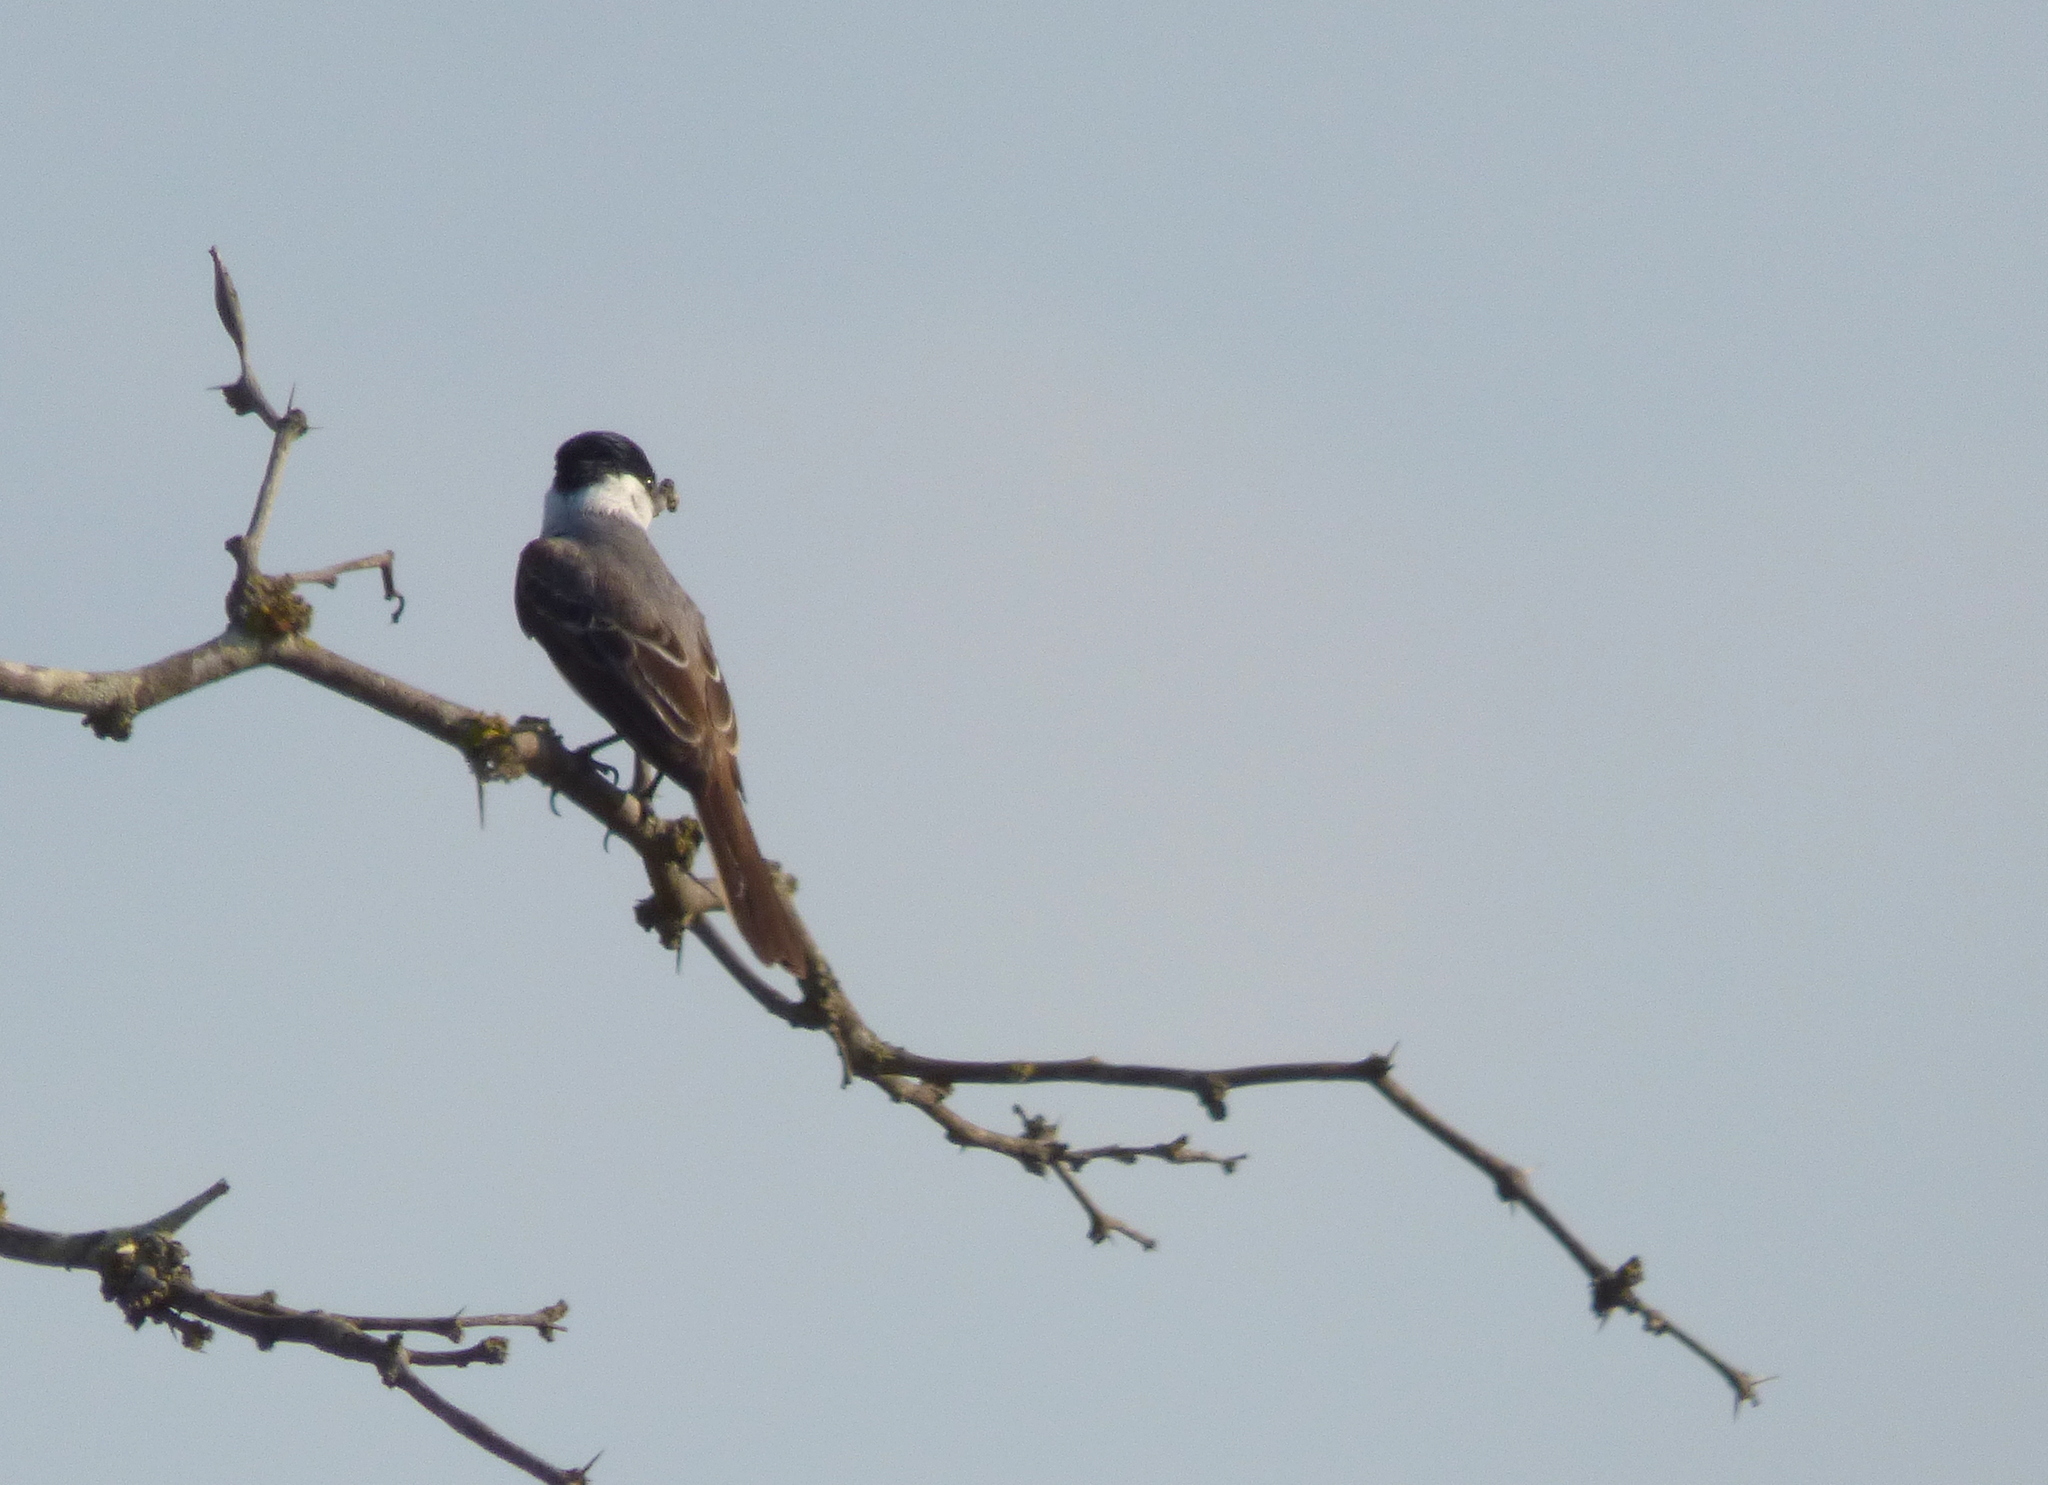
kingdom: Animalia
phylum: Chordata
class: Aves
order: Passeriformes
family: Cotingidae
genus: Xenopsaris
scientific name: Xenopsaris albinucha
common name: White-naped xenopsaris
